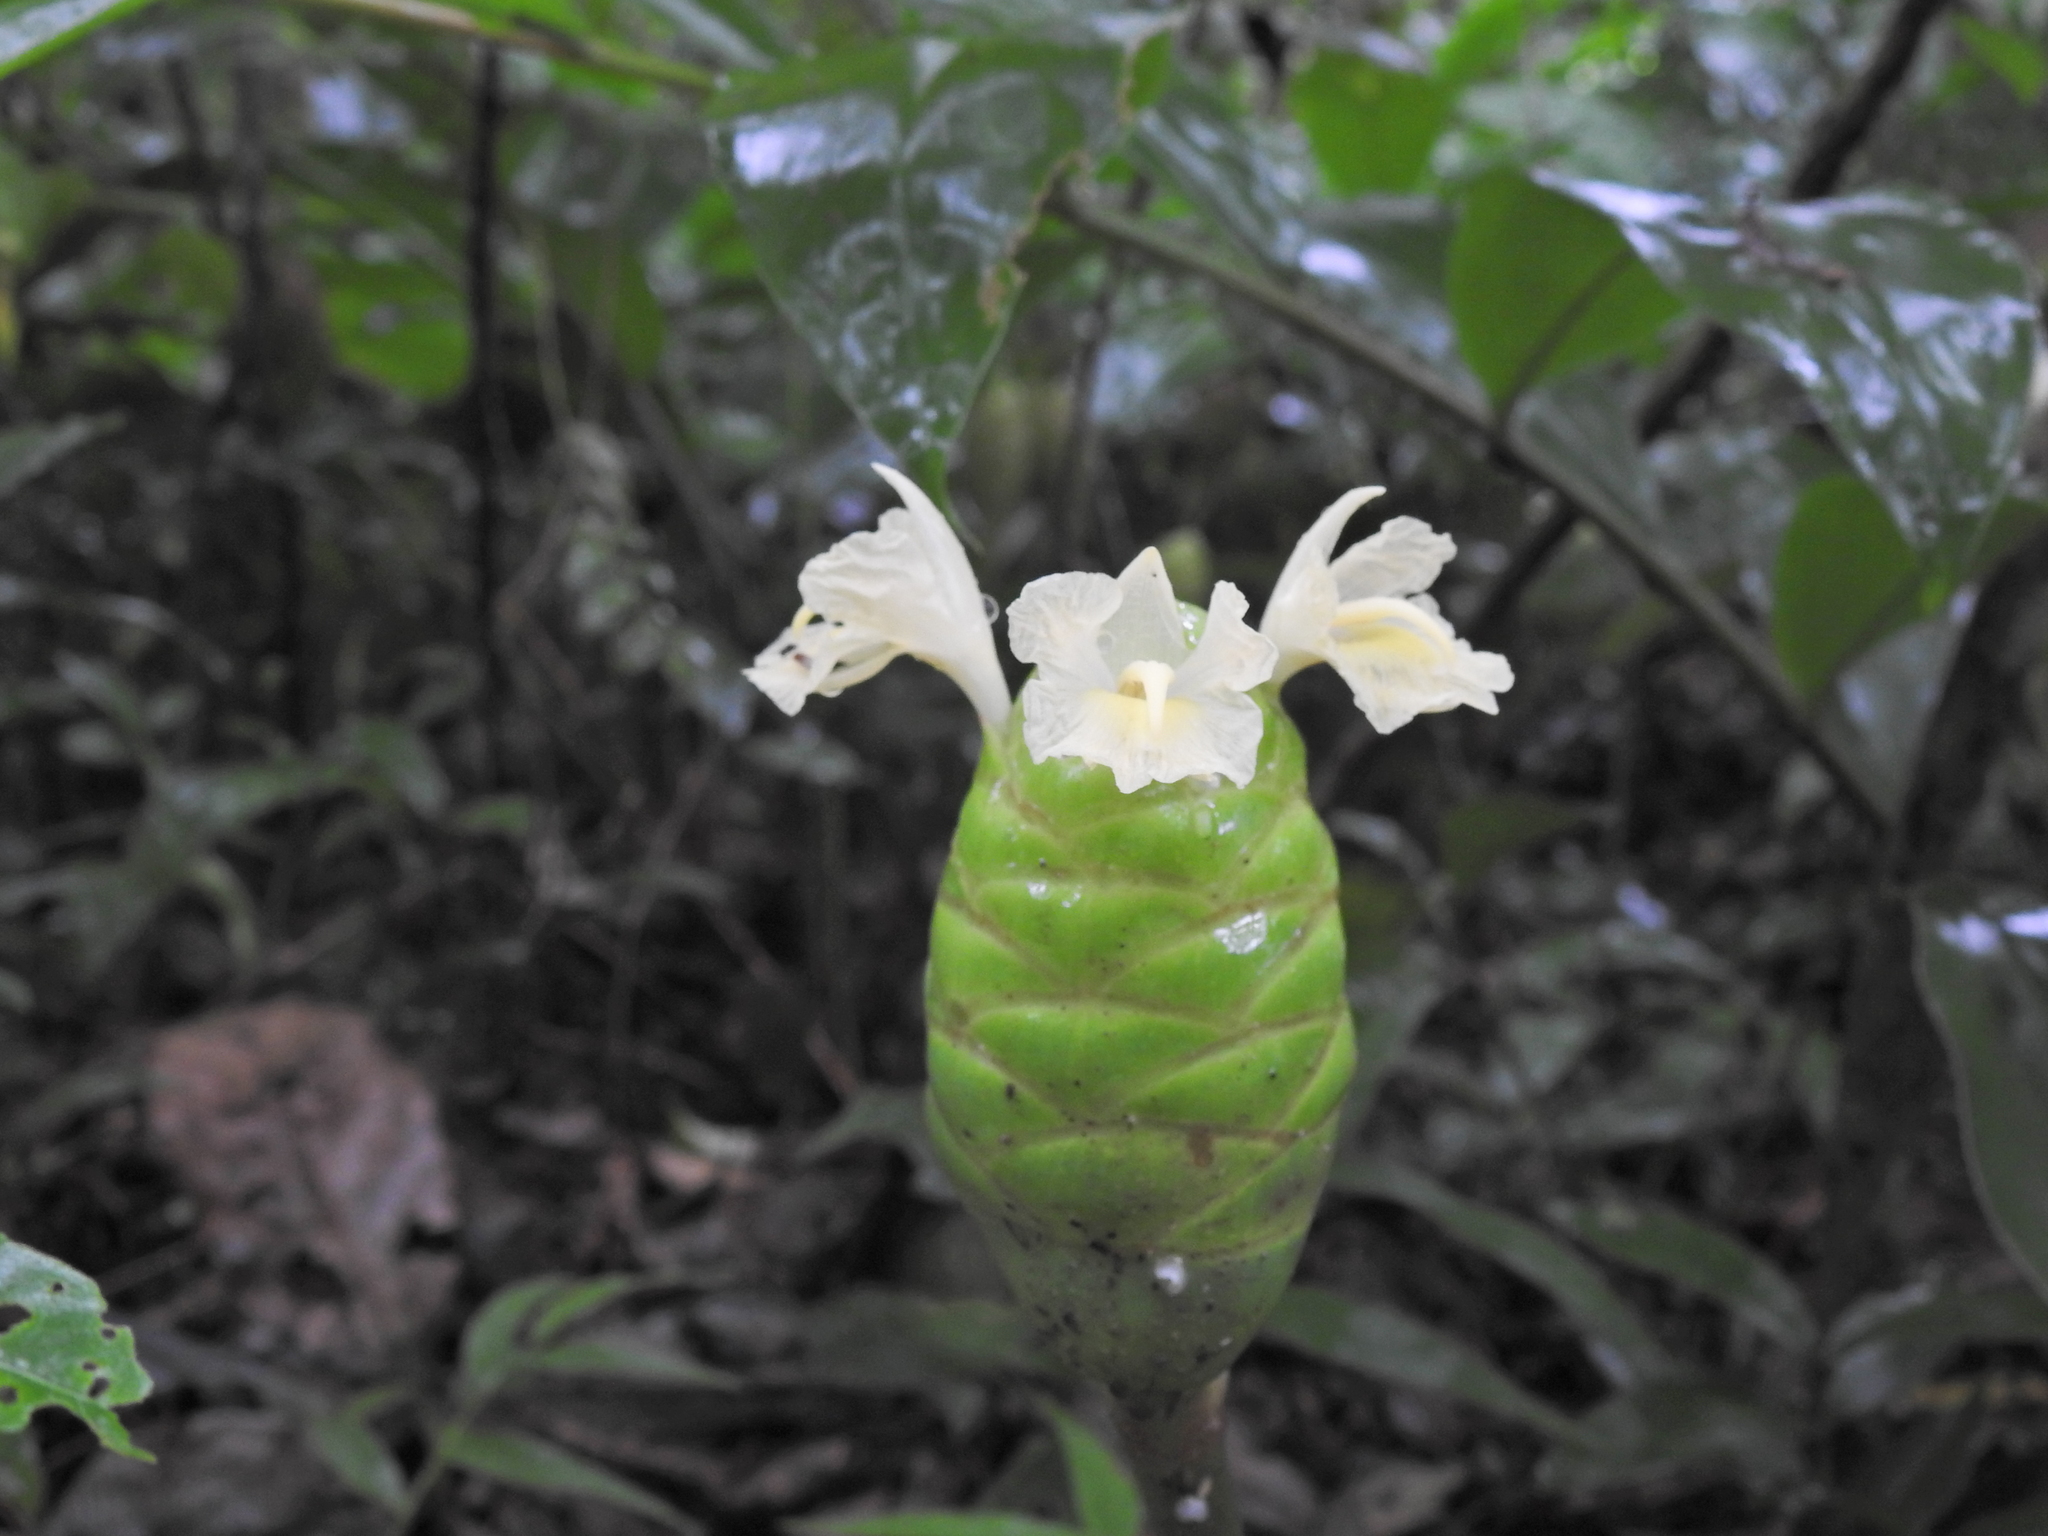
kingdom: Plantae
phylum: Tracheophyta
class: Liliopsida
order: Zingiberales
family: Zingiberaceae
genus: Zingiber
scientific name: Zingiber zerumbet
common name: Bitter ginger
